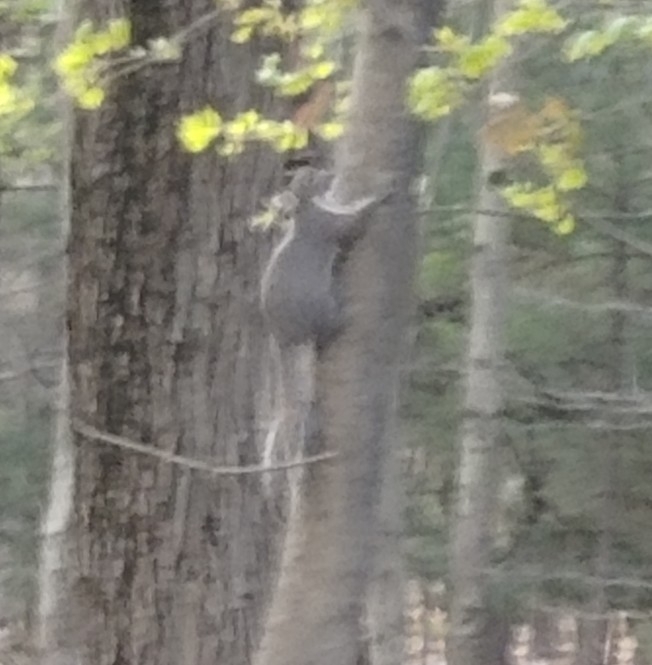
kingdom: Animalia
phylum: Chordata
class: Mammalia
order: Rodentia
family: Sciuridae
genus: Sciurus
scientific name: Sciurus carolinensis
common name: Eastern gray squirrel
